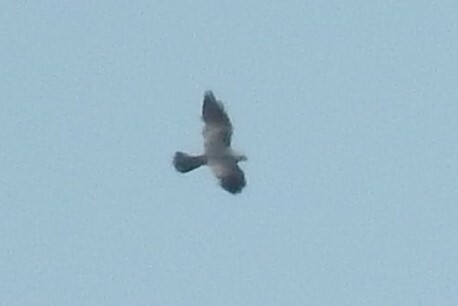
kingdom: Animalia
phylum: Chordata
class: Aves
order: Accipitriformes
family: Accipitridae
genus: Ictinia
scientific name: Ictinia mississippiensis
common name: Mississippi kite
